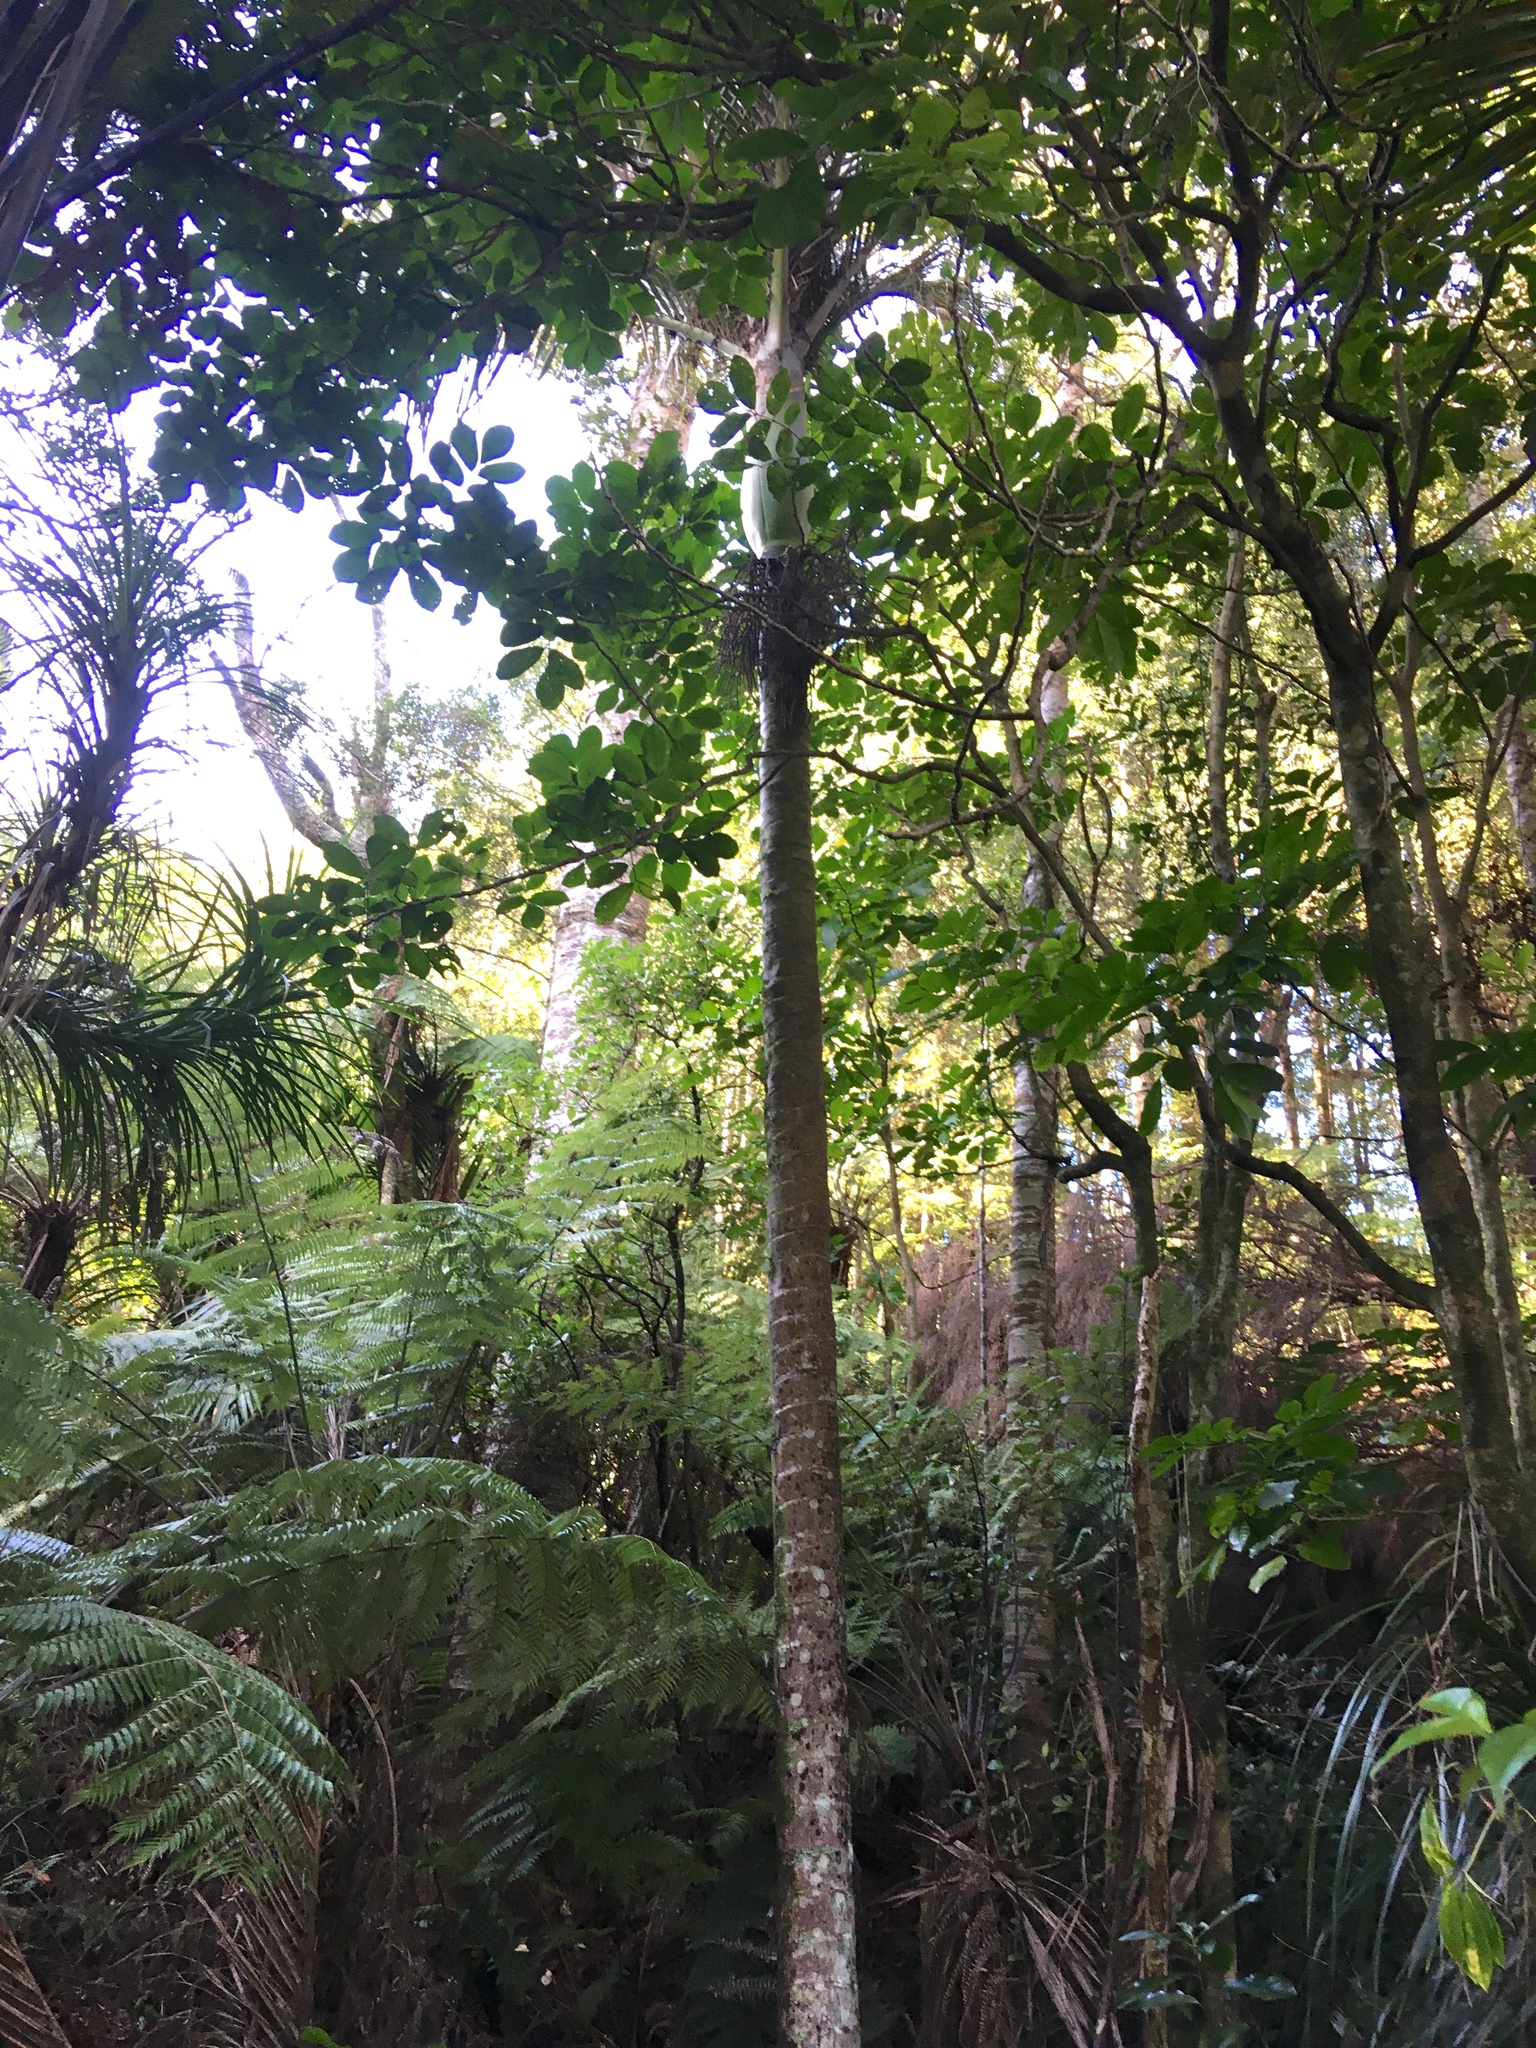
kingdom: Plantae
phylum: Tracheophyta
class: Magnoliopsida
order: Sapindales
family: Meliaceae
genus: Didymocheton
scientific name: Didymocheton spectabilis
